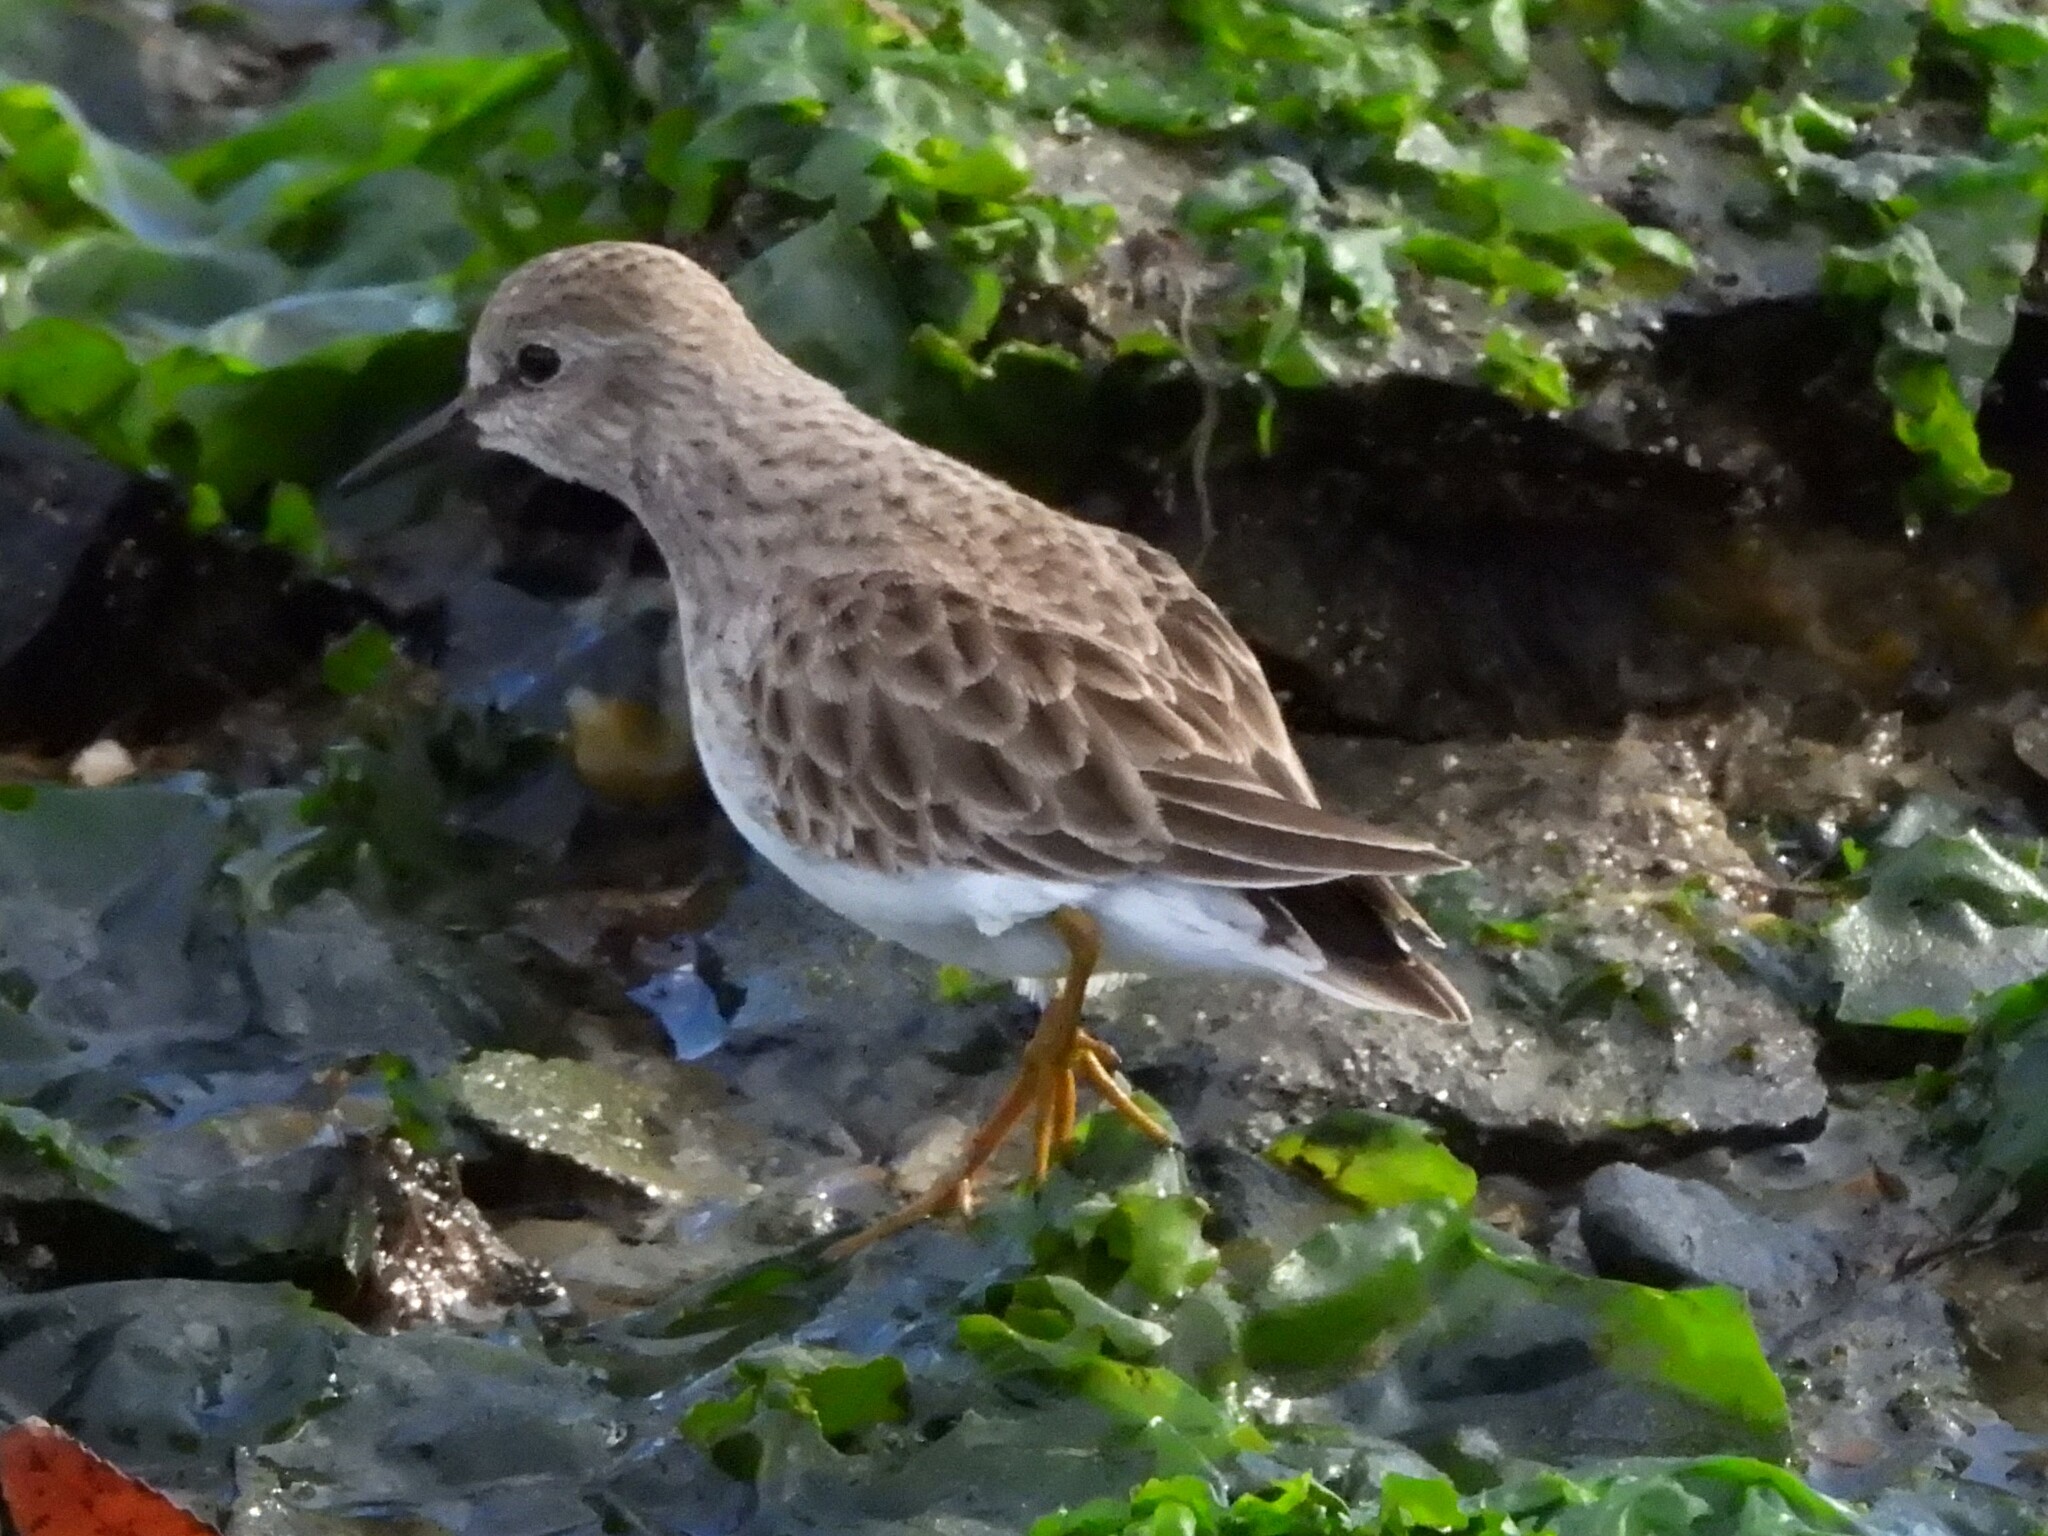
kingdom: Animalia
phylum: Chordata
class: Aves
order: Charadriiformes
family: Scolopacidae
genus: Calidris
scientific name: Calidris minutilla
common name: Least sandpiper
